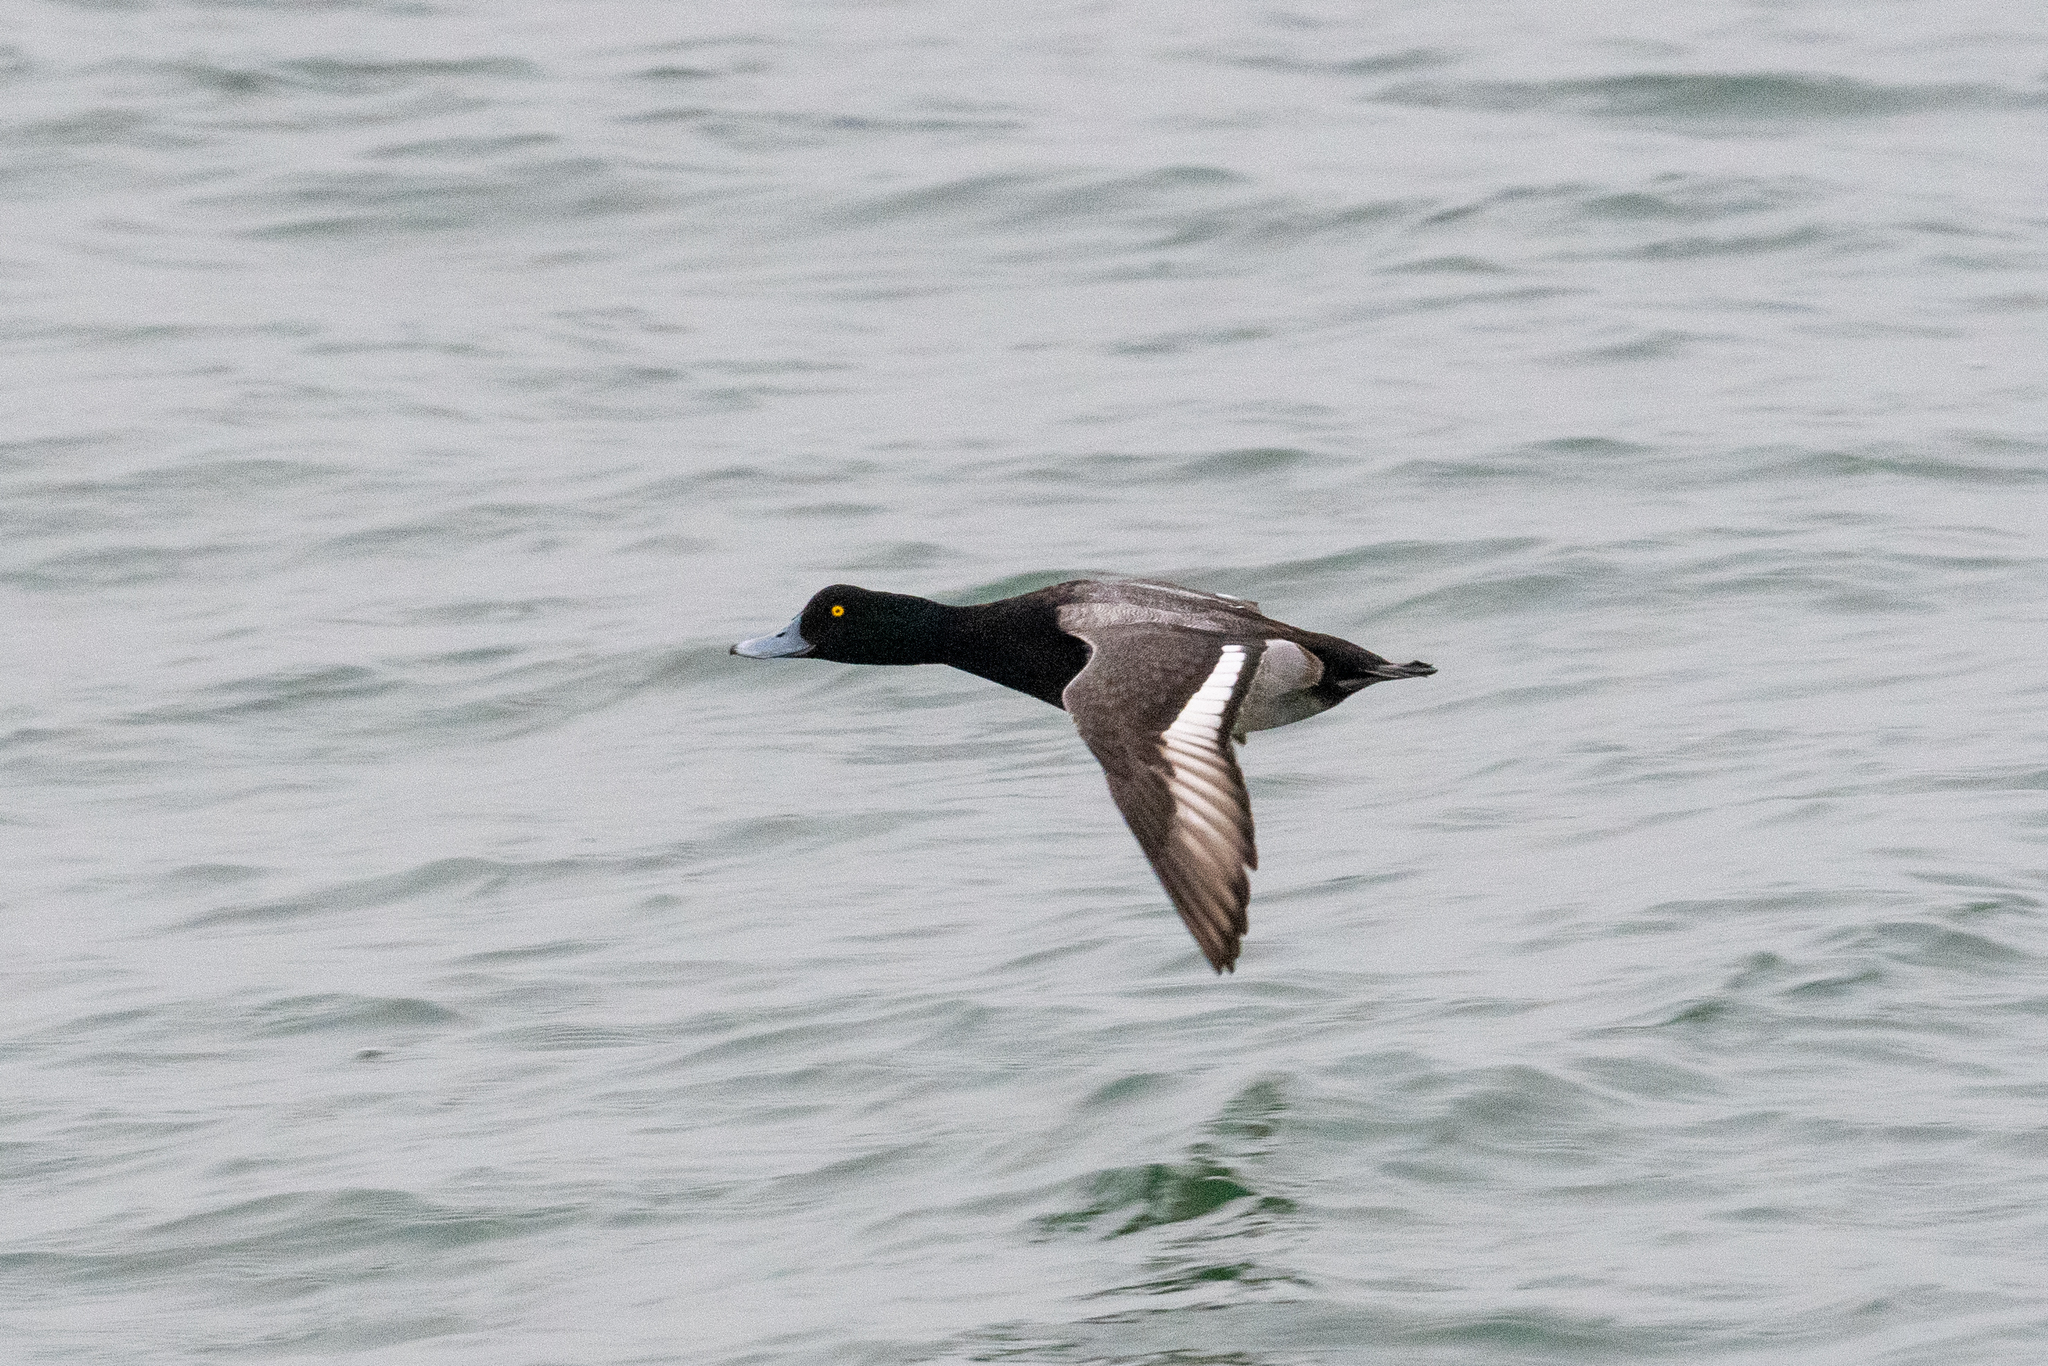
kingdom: Animalia
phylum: Chordata
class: Aves
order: Anseriformes
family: Anatidae
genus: Aythya
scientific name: Aythya marila
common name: Greater scaup
